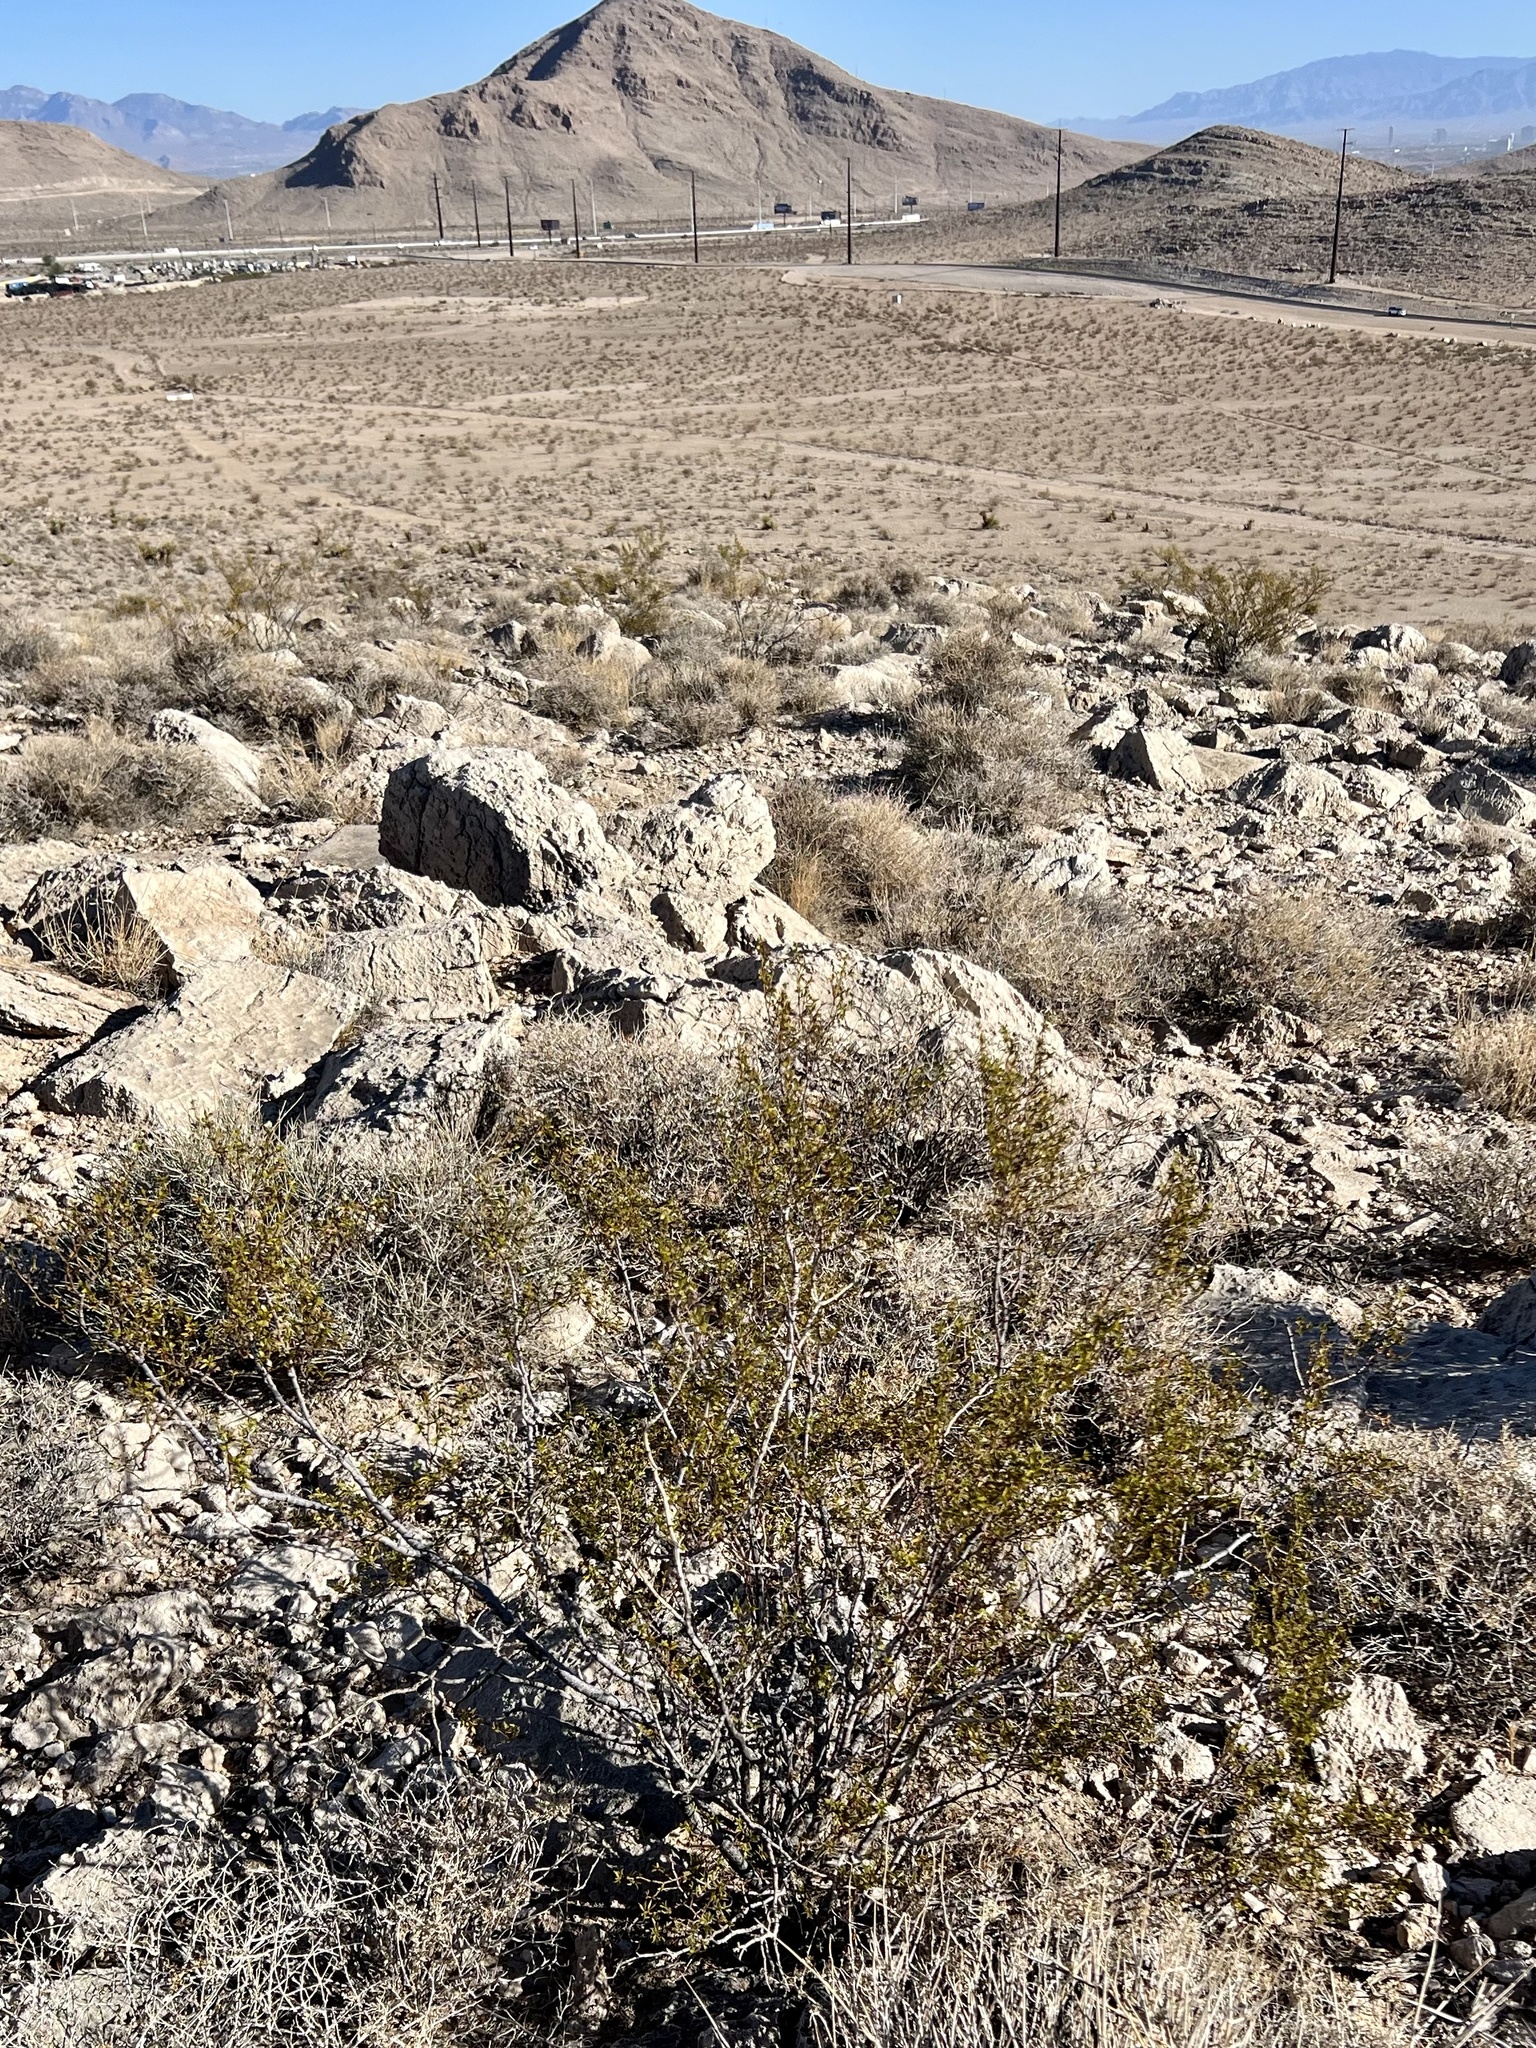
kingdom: Plantae
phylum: Tracheophyta
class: Magnoliopsida
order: Zygophyllales
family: Zygophyllaceae
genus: Larrea
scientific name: Larrea tridentata
